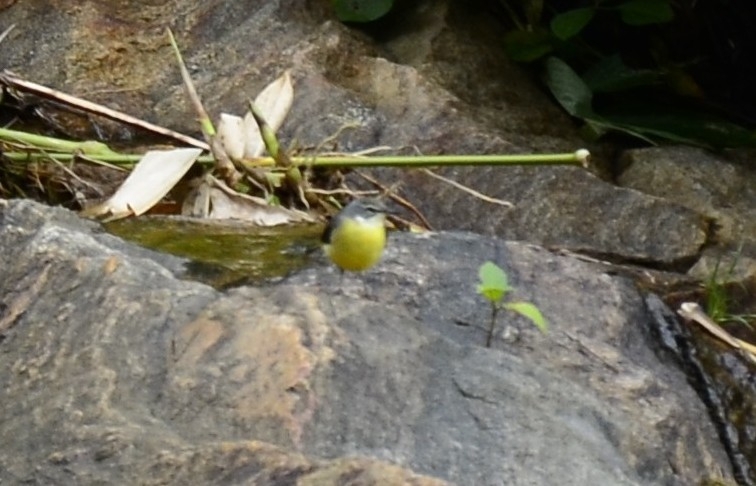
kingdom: Animalia
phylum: Chordata
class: Aves
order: Passeriformes
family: Motacillidae
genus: Motacilla
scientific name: Motacilla cinerea
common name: Grey wagtail
